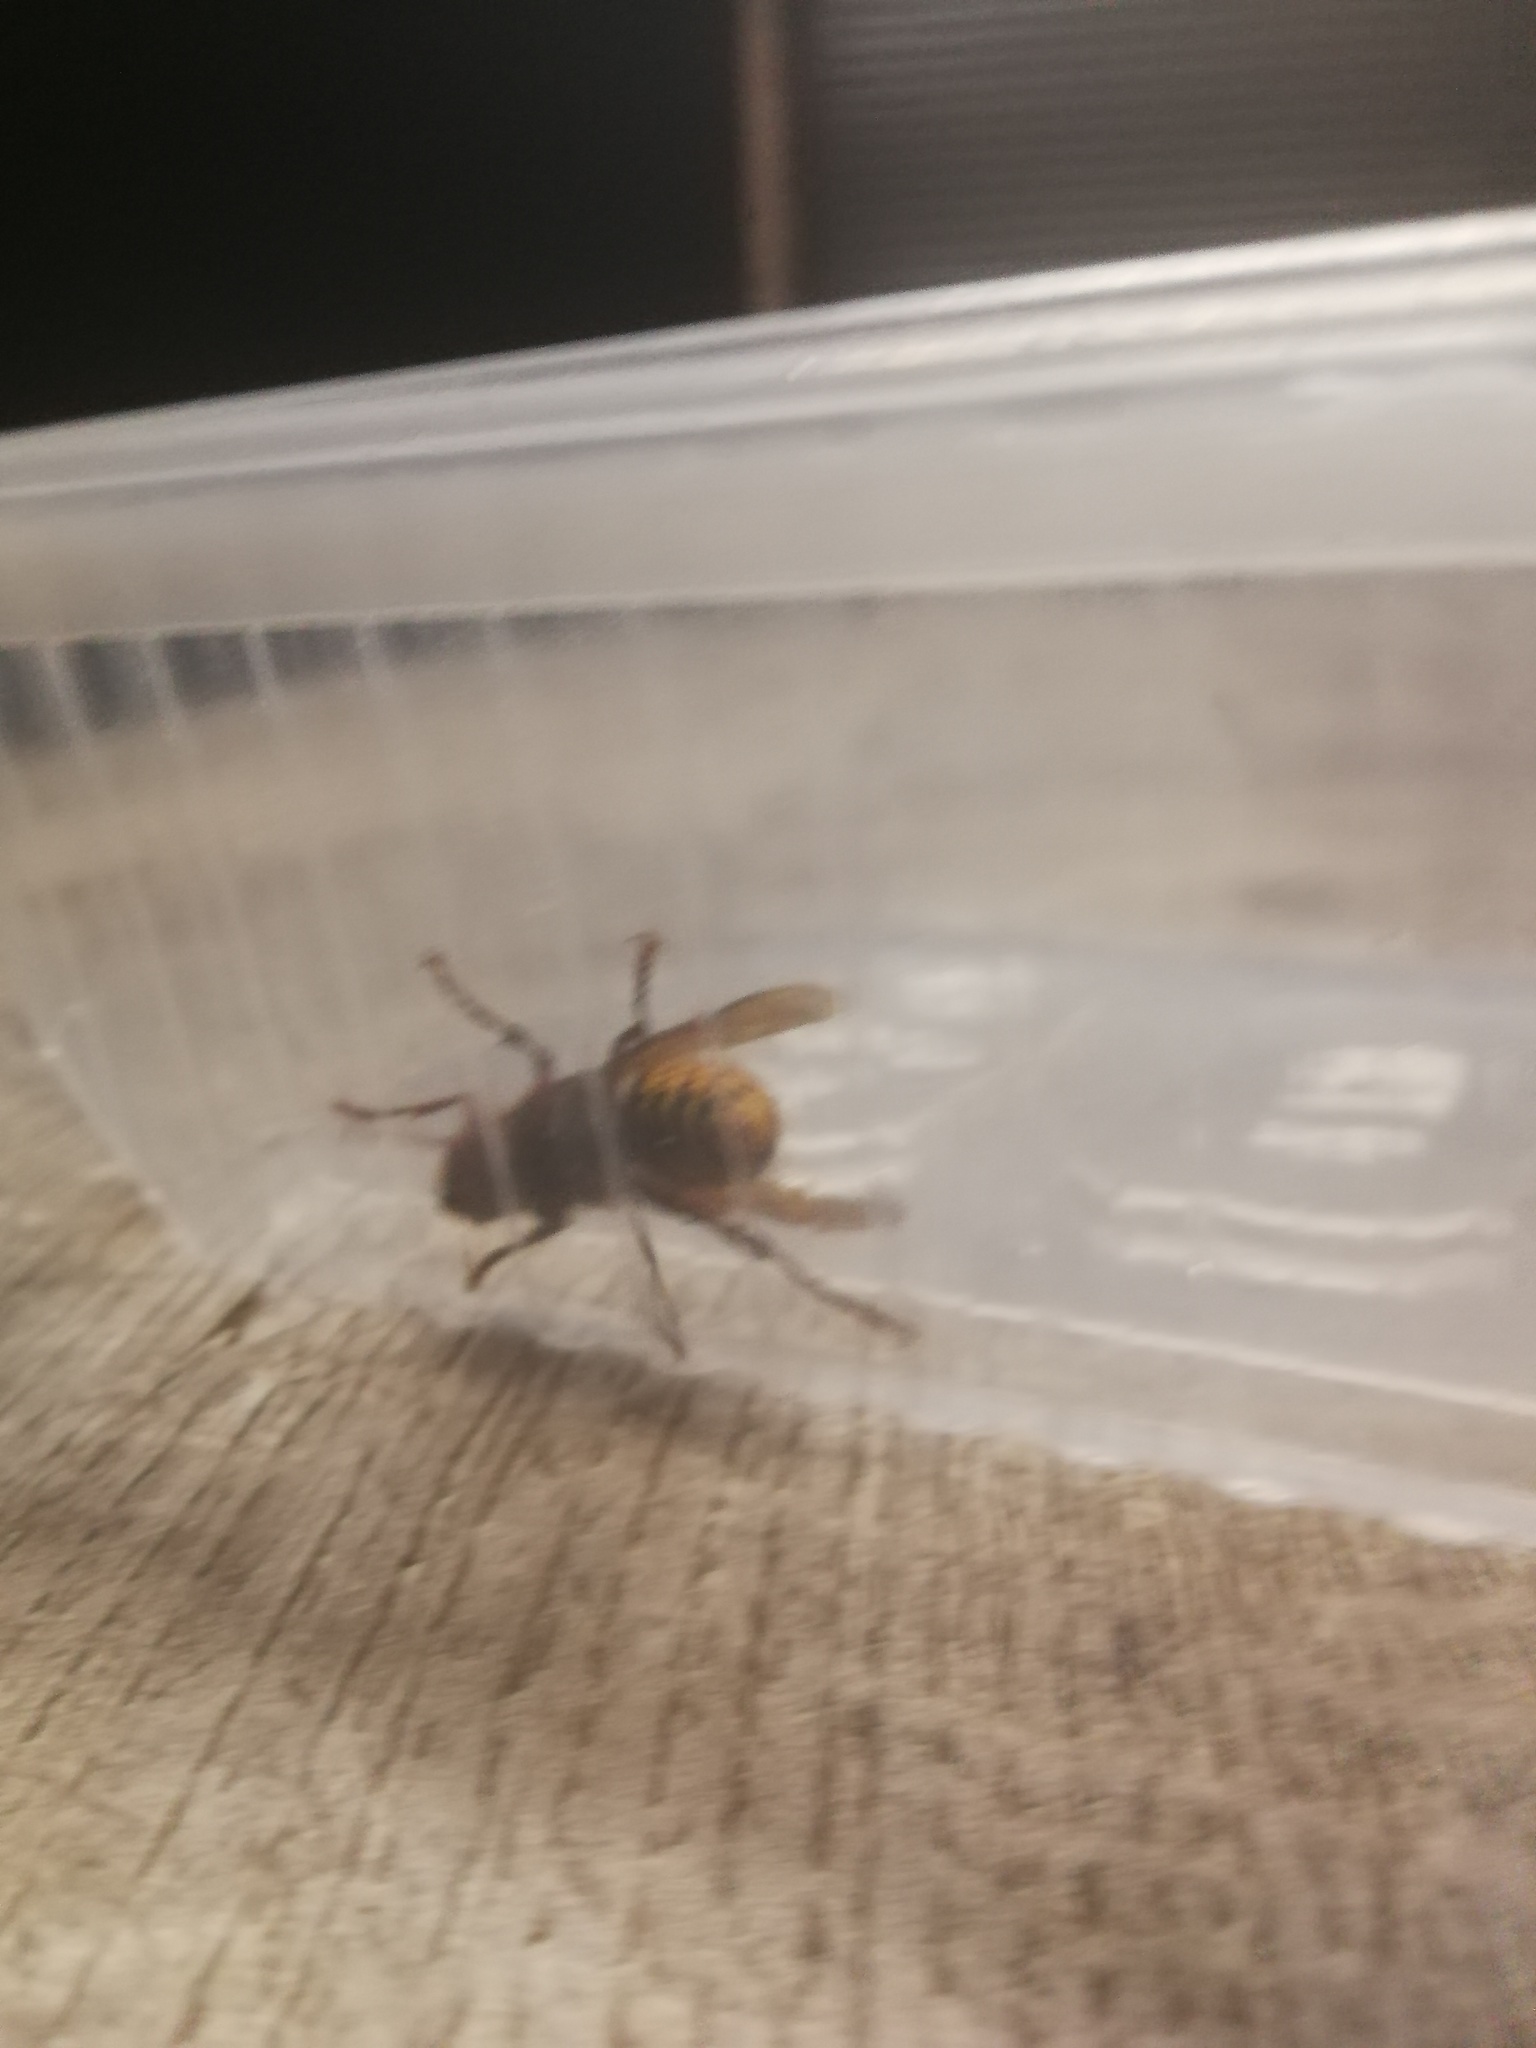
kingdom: Animalia
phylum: Arthropoda
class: Insecta
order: Hymenoptera
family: Vespidae
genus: Vespa
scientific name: Vespa crabro
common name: Hornet
